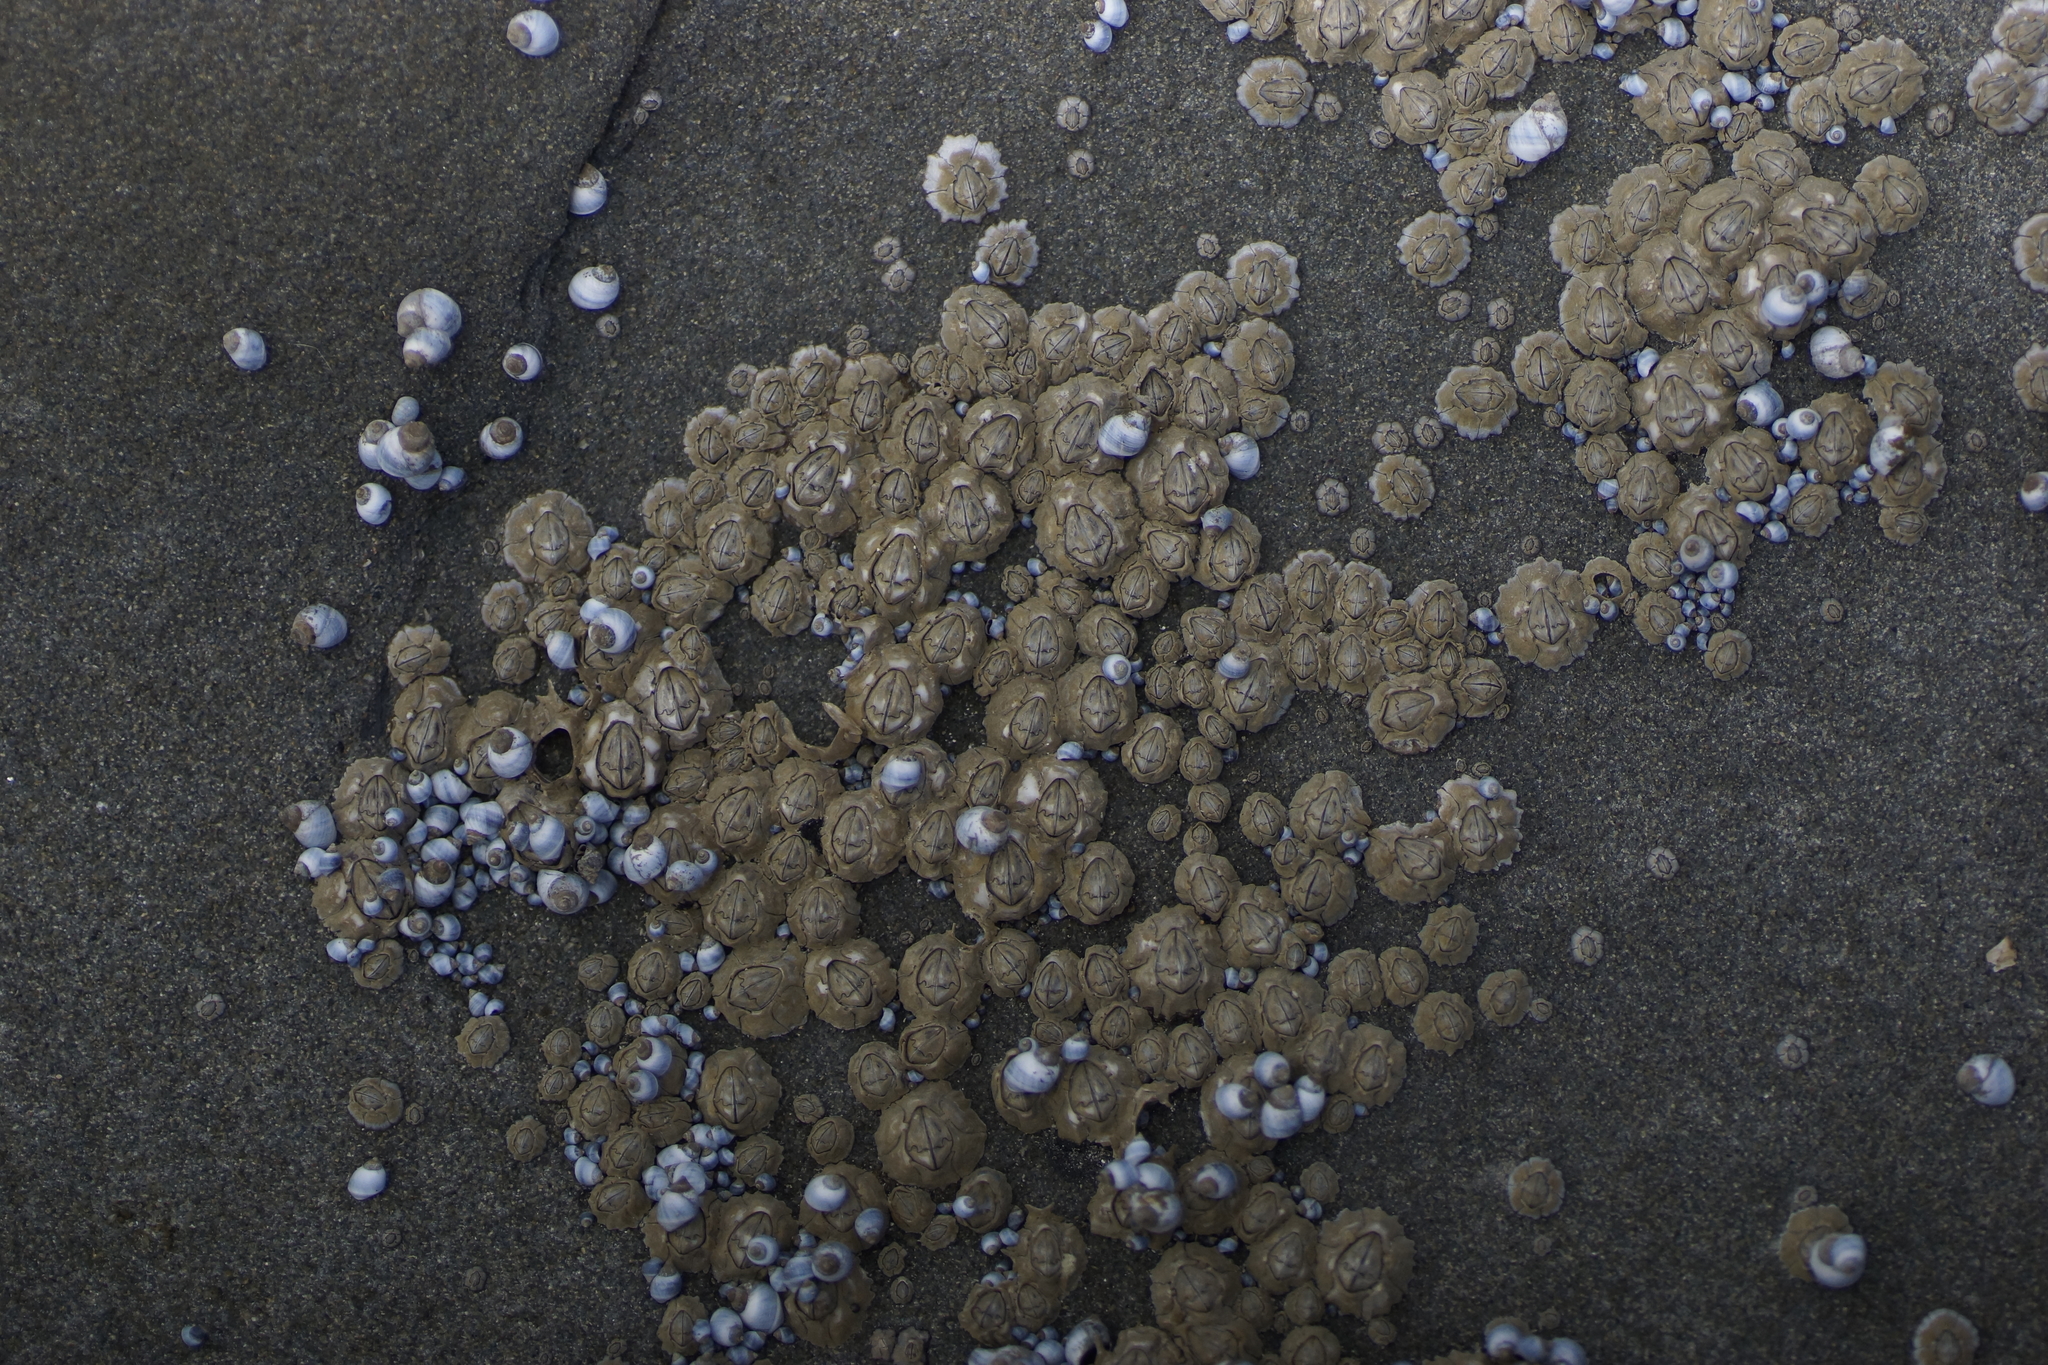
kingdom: Animalia
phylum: Arthropoda
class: Maxillopoda
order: Sessilia
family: Chthamalidae
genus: Chthamalus
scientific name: Chthamalus antennatus
